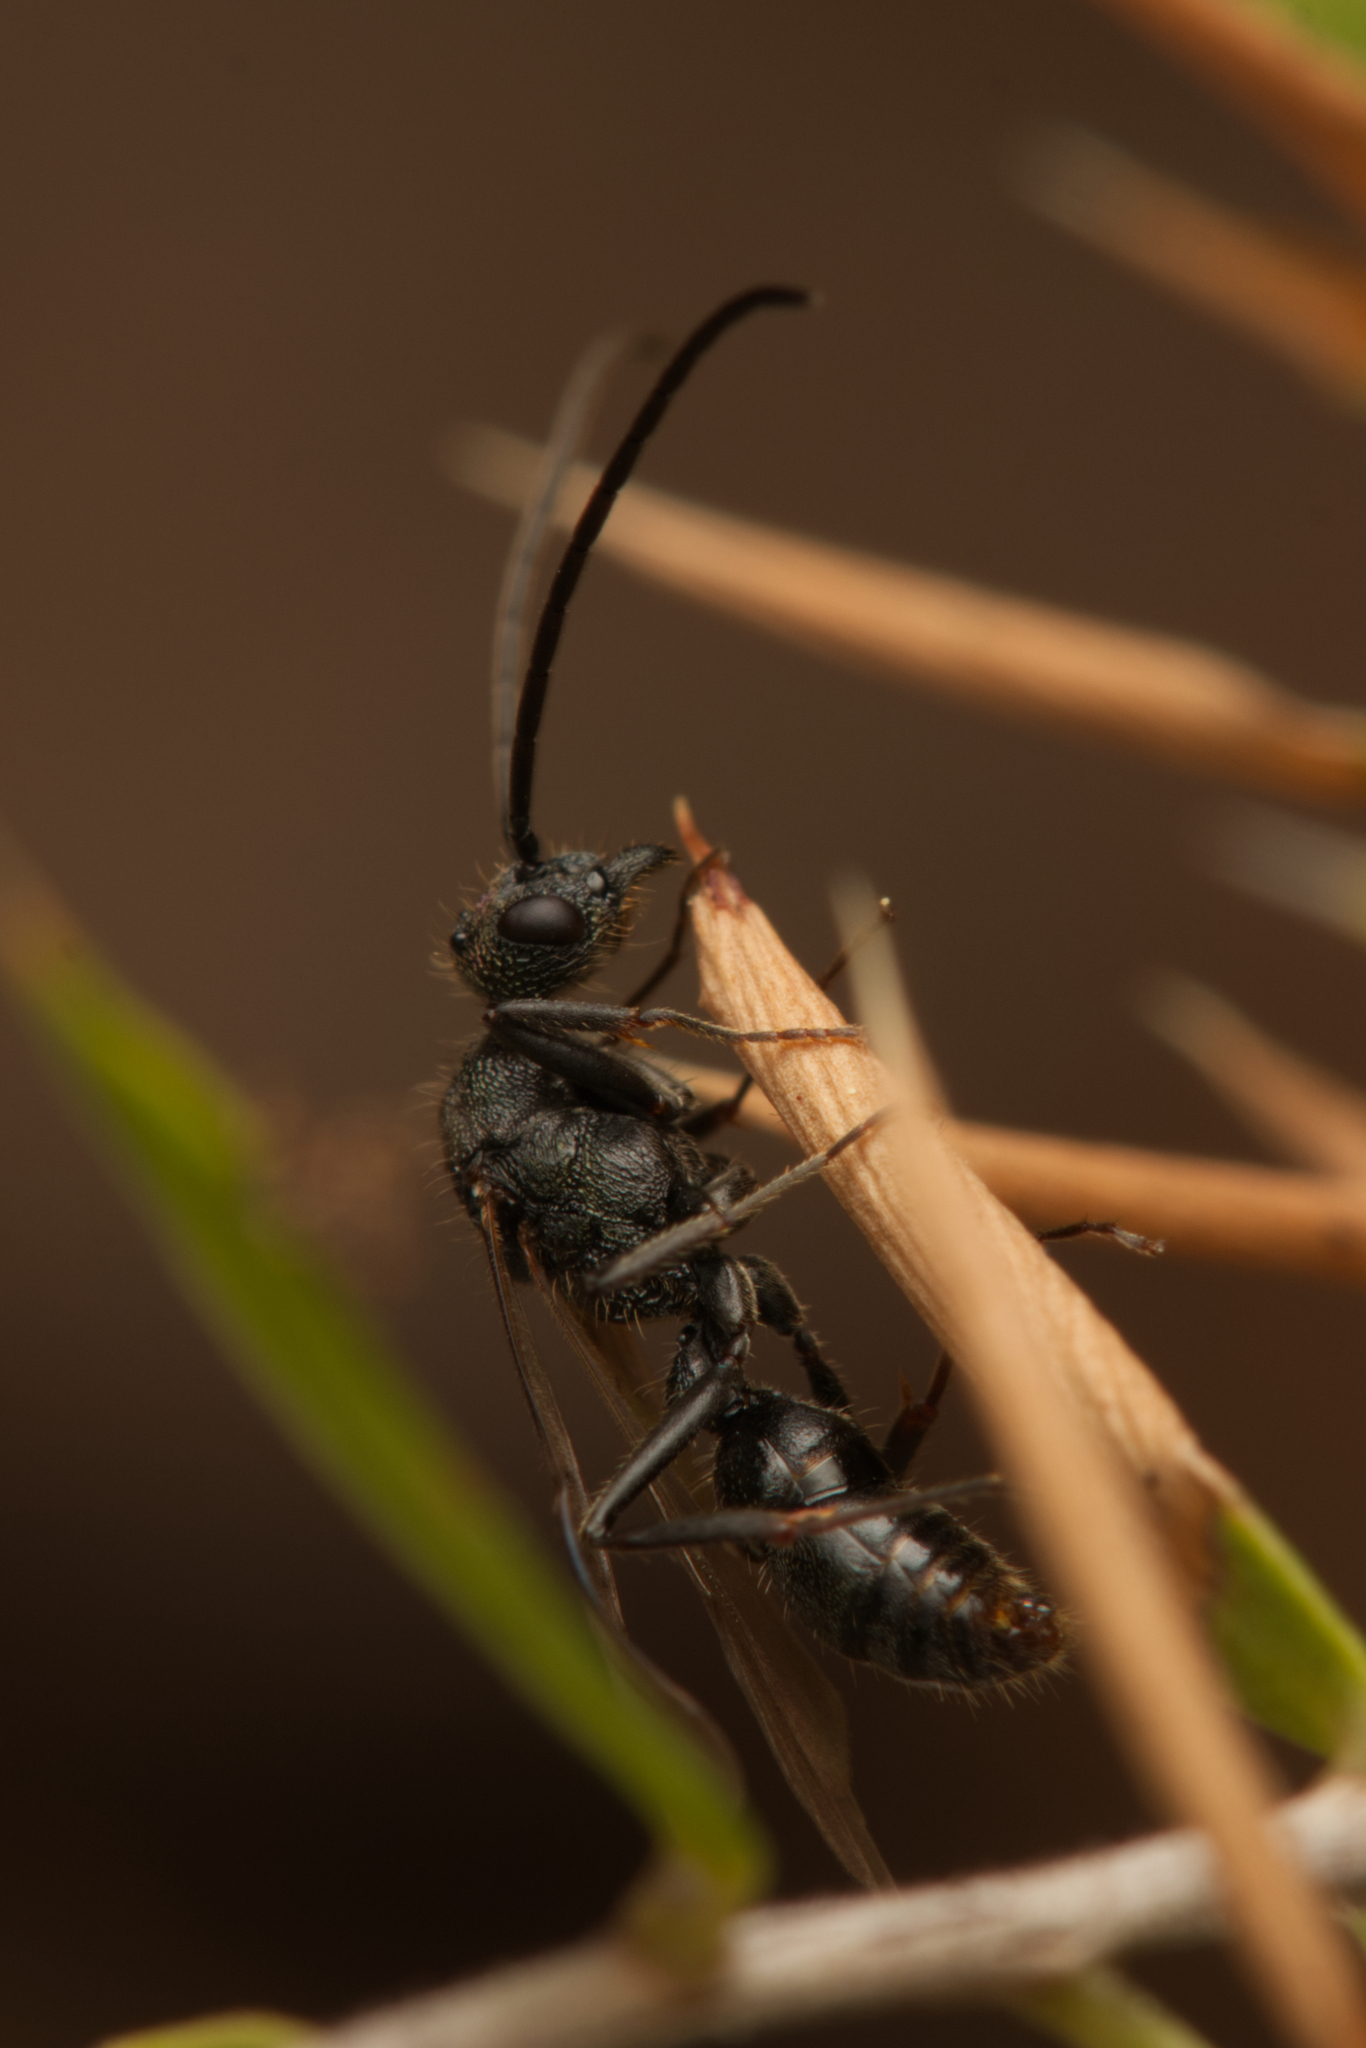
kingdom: Animalia
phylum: Arthropoda
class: Insecta
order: Hymenoptera
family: Formicidae
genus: Rhytidoponera
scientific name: Rhytidoponera metallica
